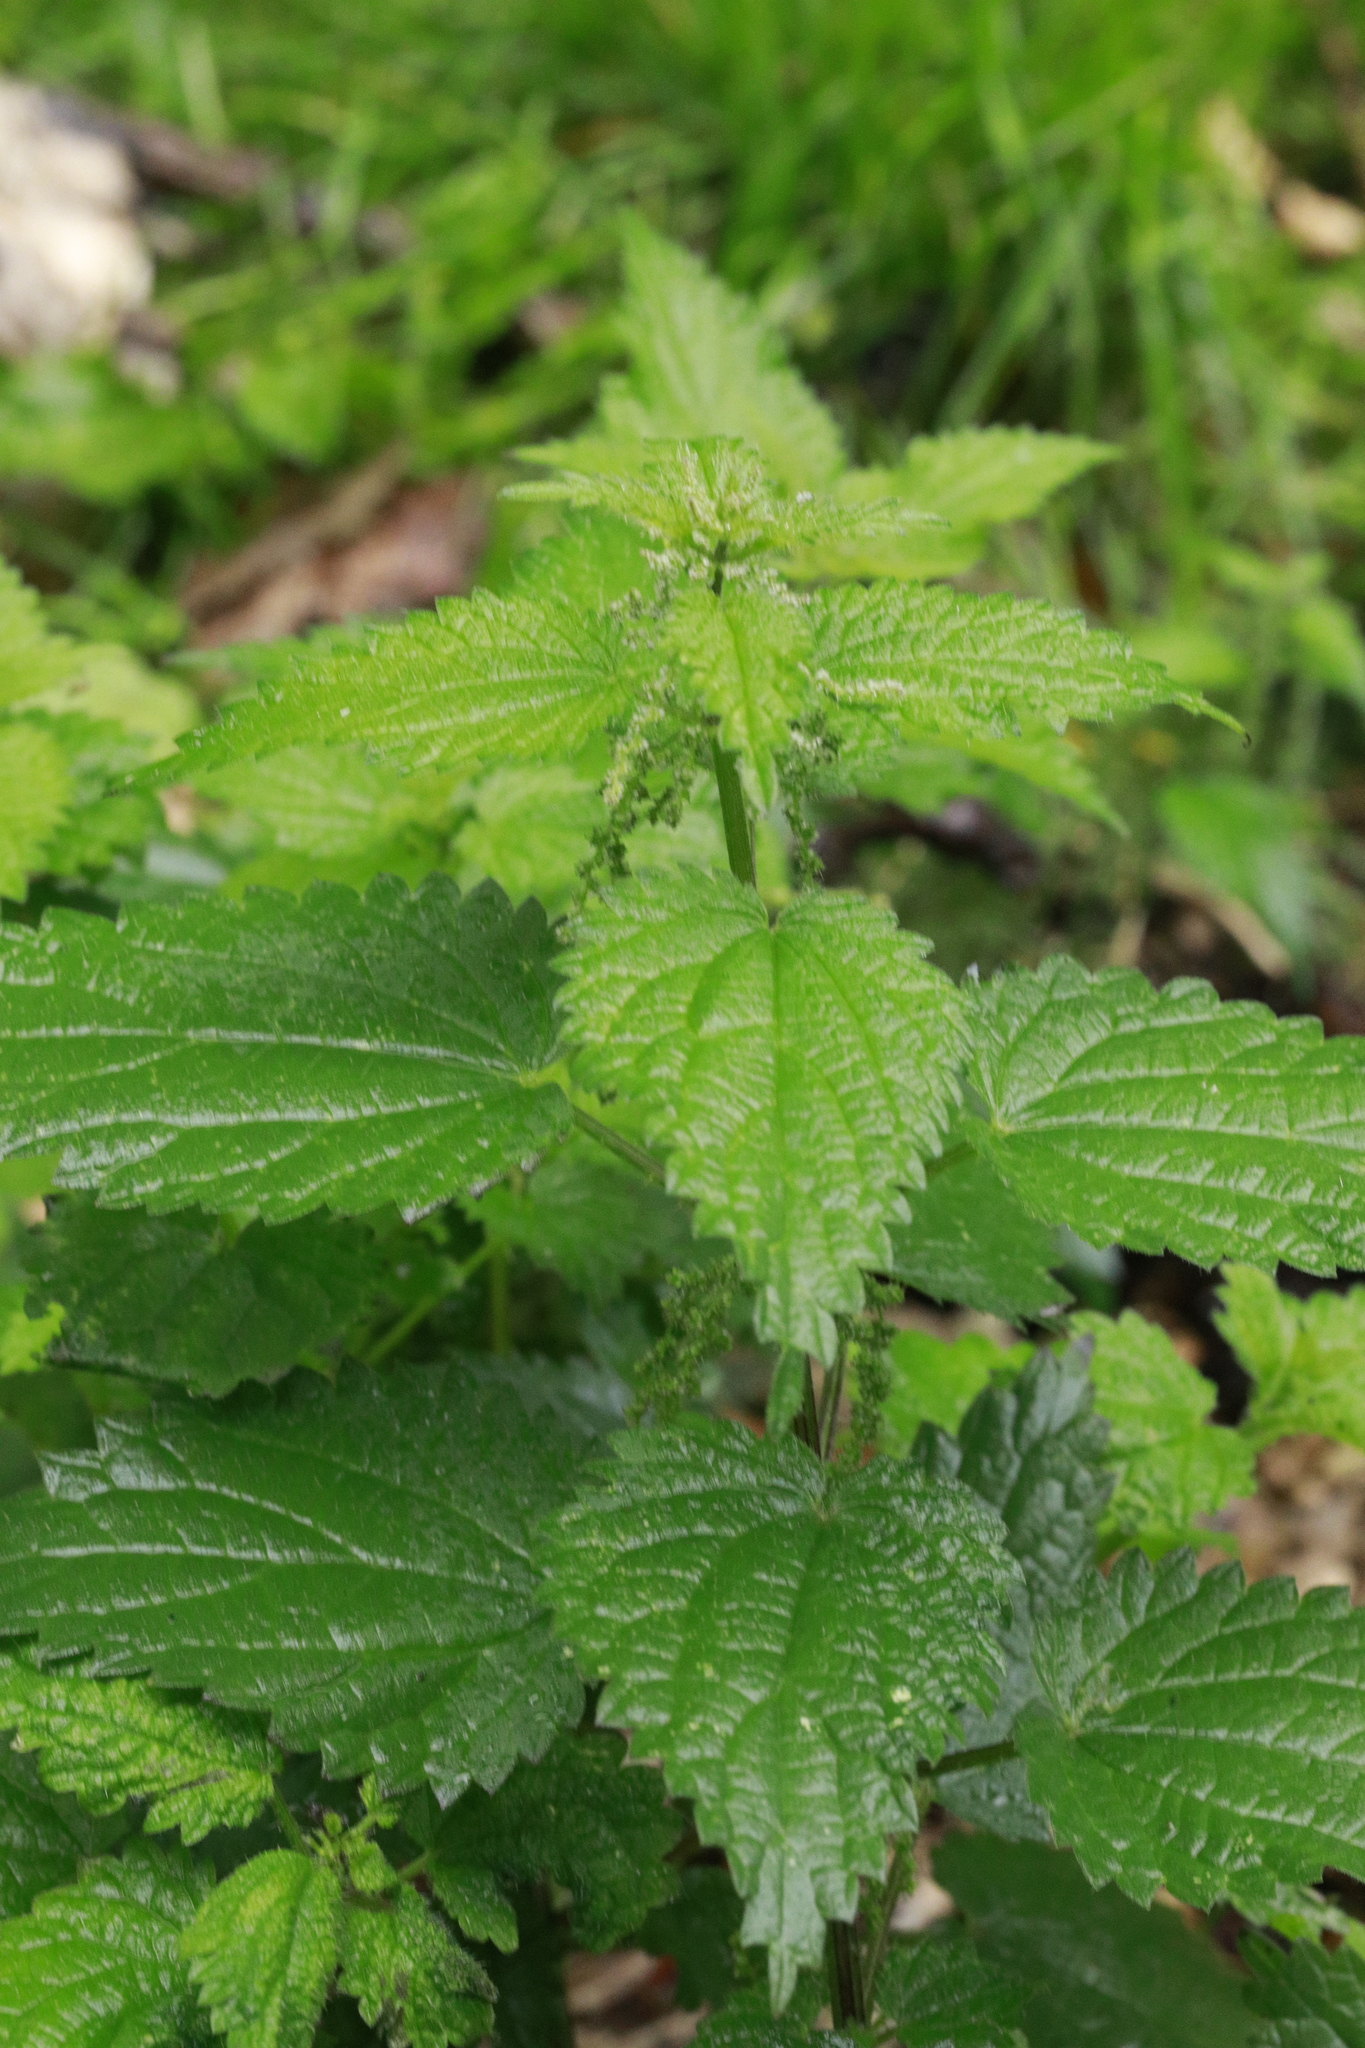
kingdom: Plantae
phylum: Tracheophyta
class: Magnoliopsida
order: Rosales
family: Urticaceae
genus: Urtica
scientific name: Urtica dioica
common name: Common nettle
